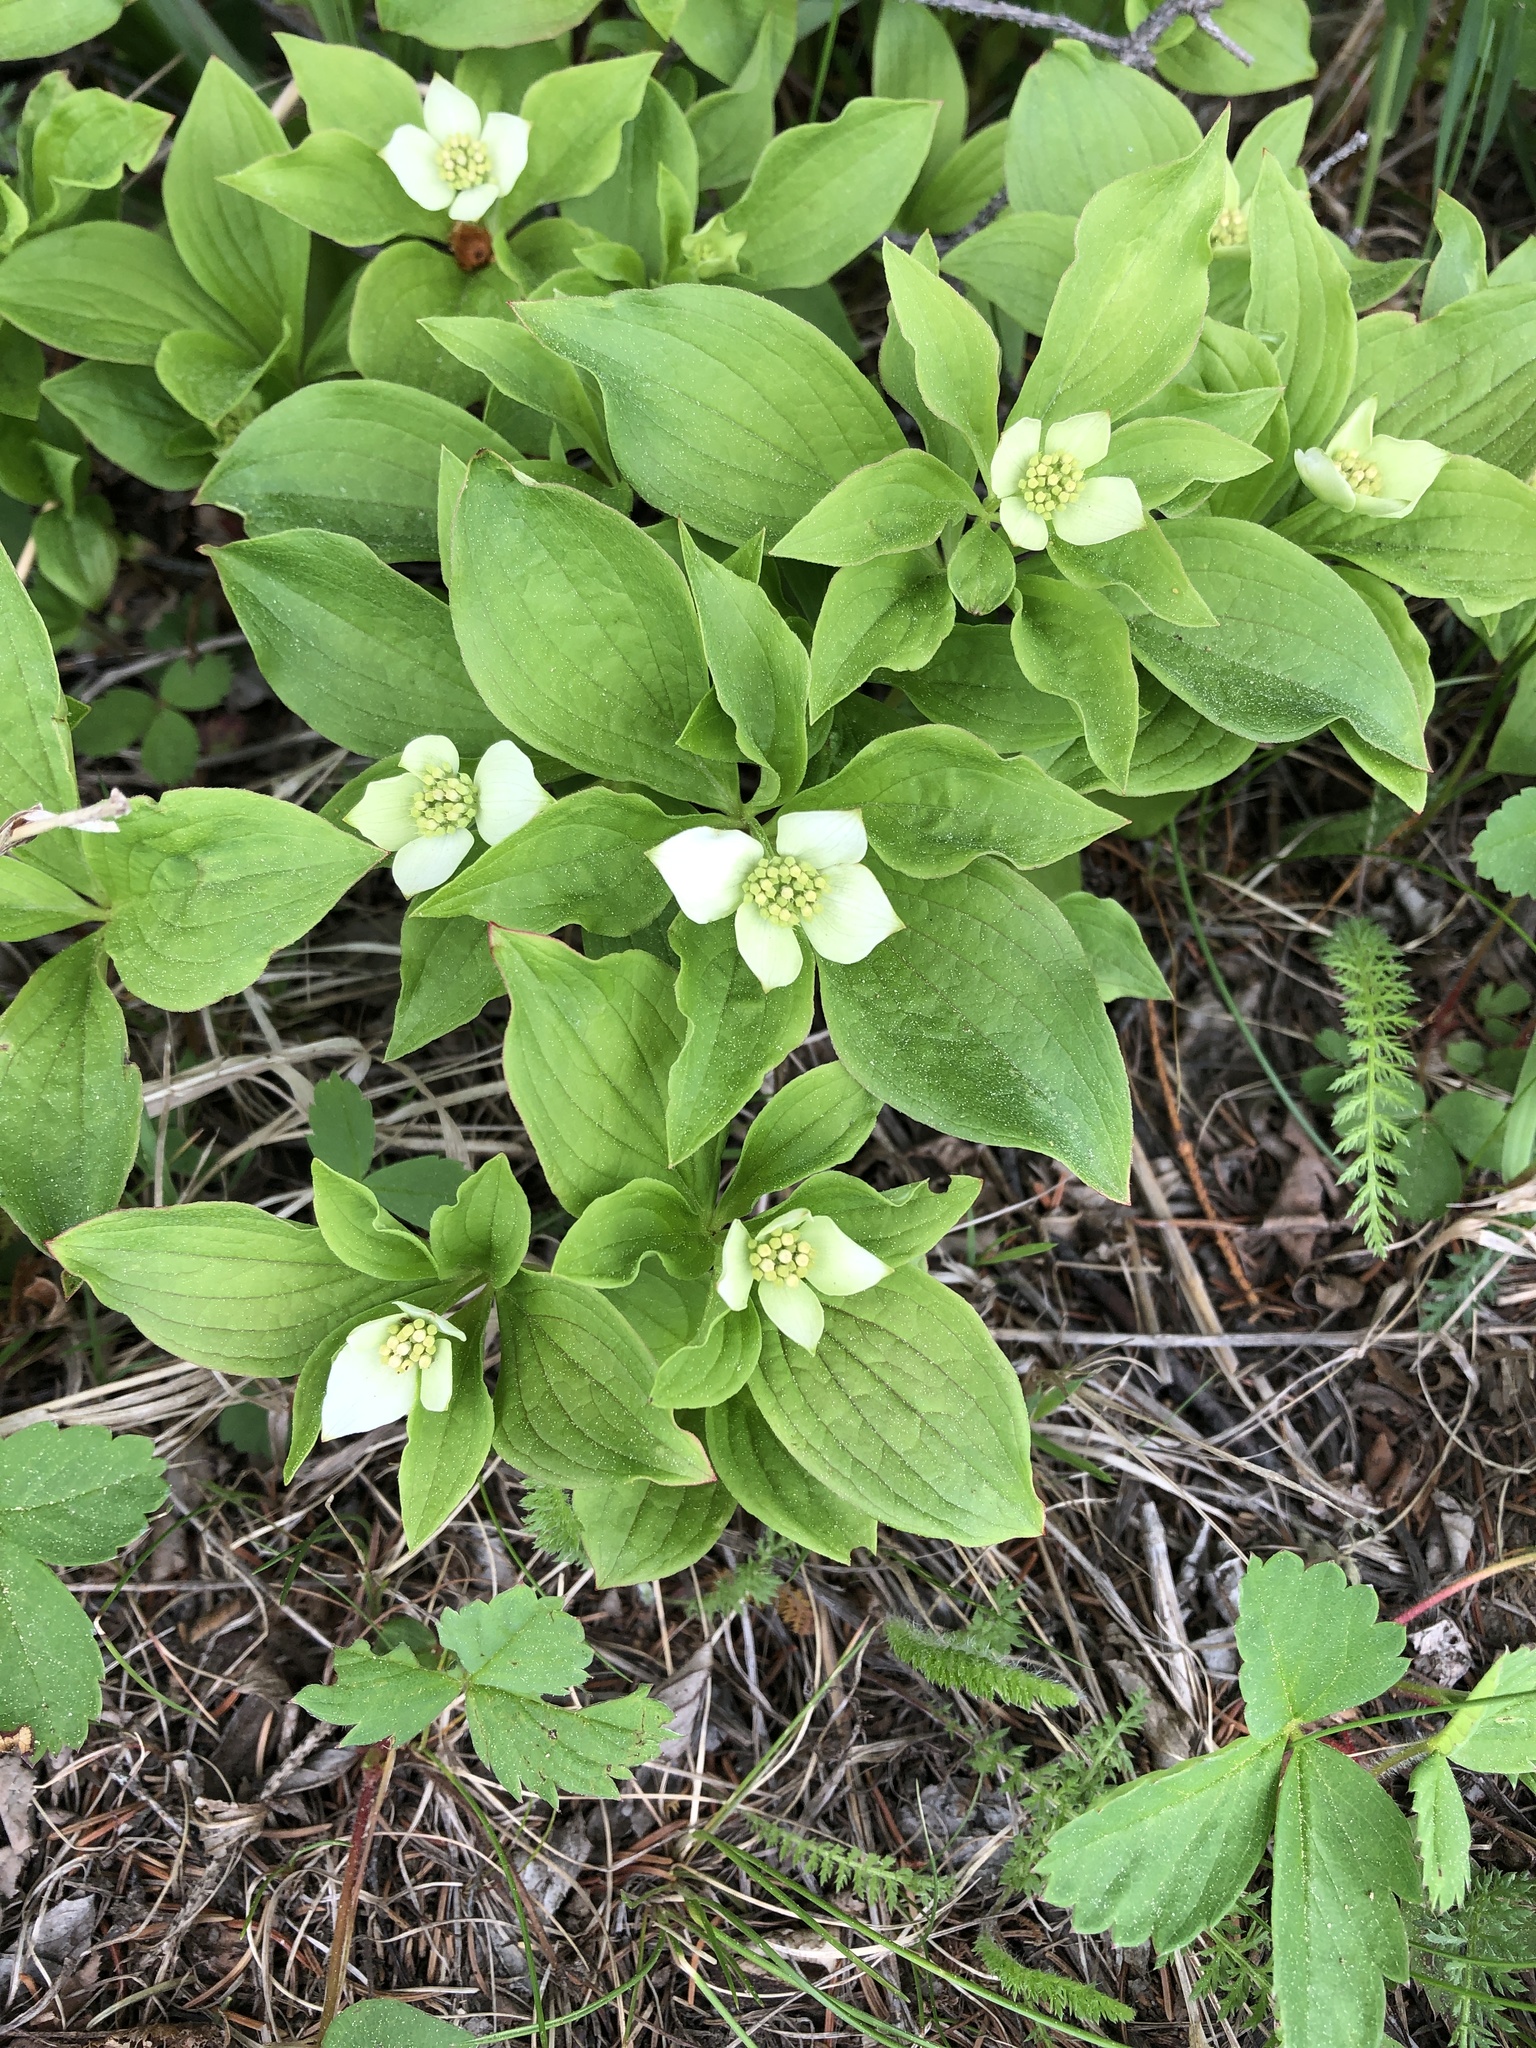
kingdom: Plantae
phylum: Tracheophyta
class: Magnoliopsida
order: Cornales
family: Cornaceae
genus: Cornus
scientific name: Cornus canadensis
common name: Creeping dogwood
